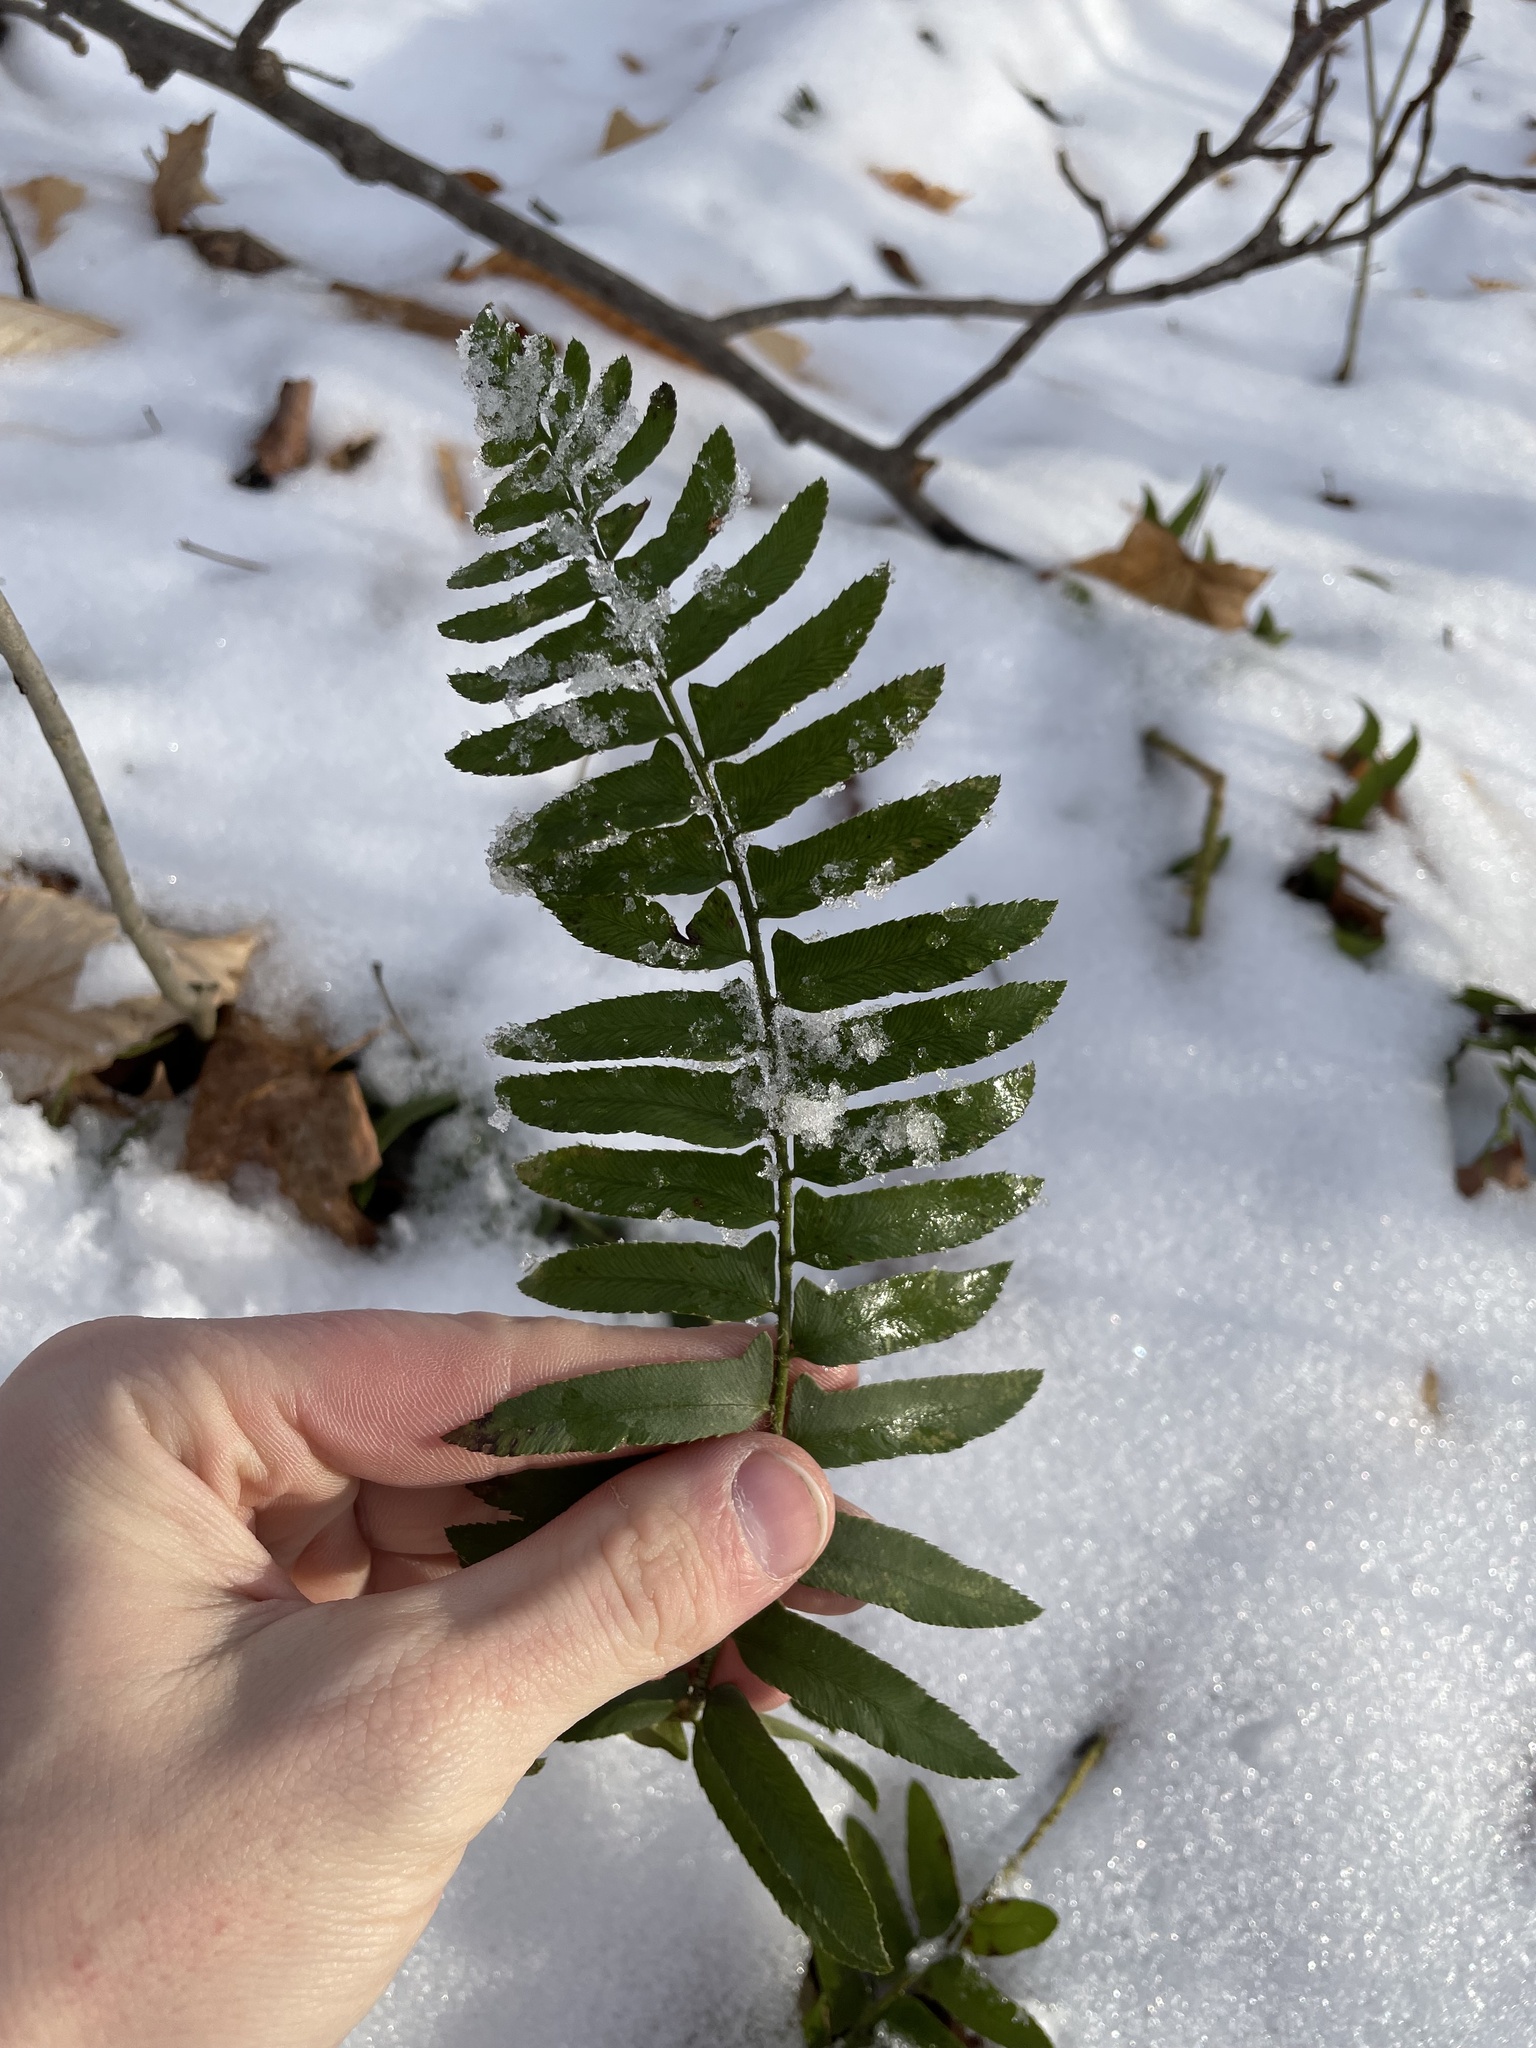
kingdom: Plantae
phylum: Tracheophyta
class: Polypodiopsida
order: Polypodiales
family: Dryopteridaceae
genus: Polystichum
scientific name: Polystichum acrostichoides
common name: Christmas fern
